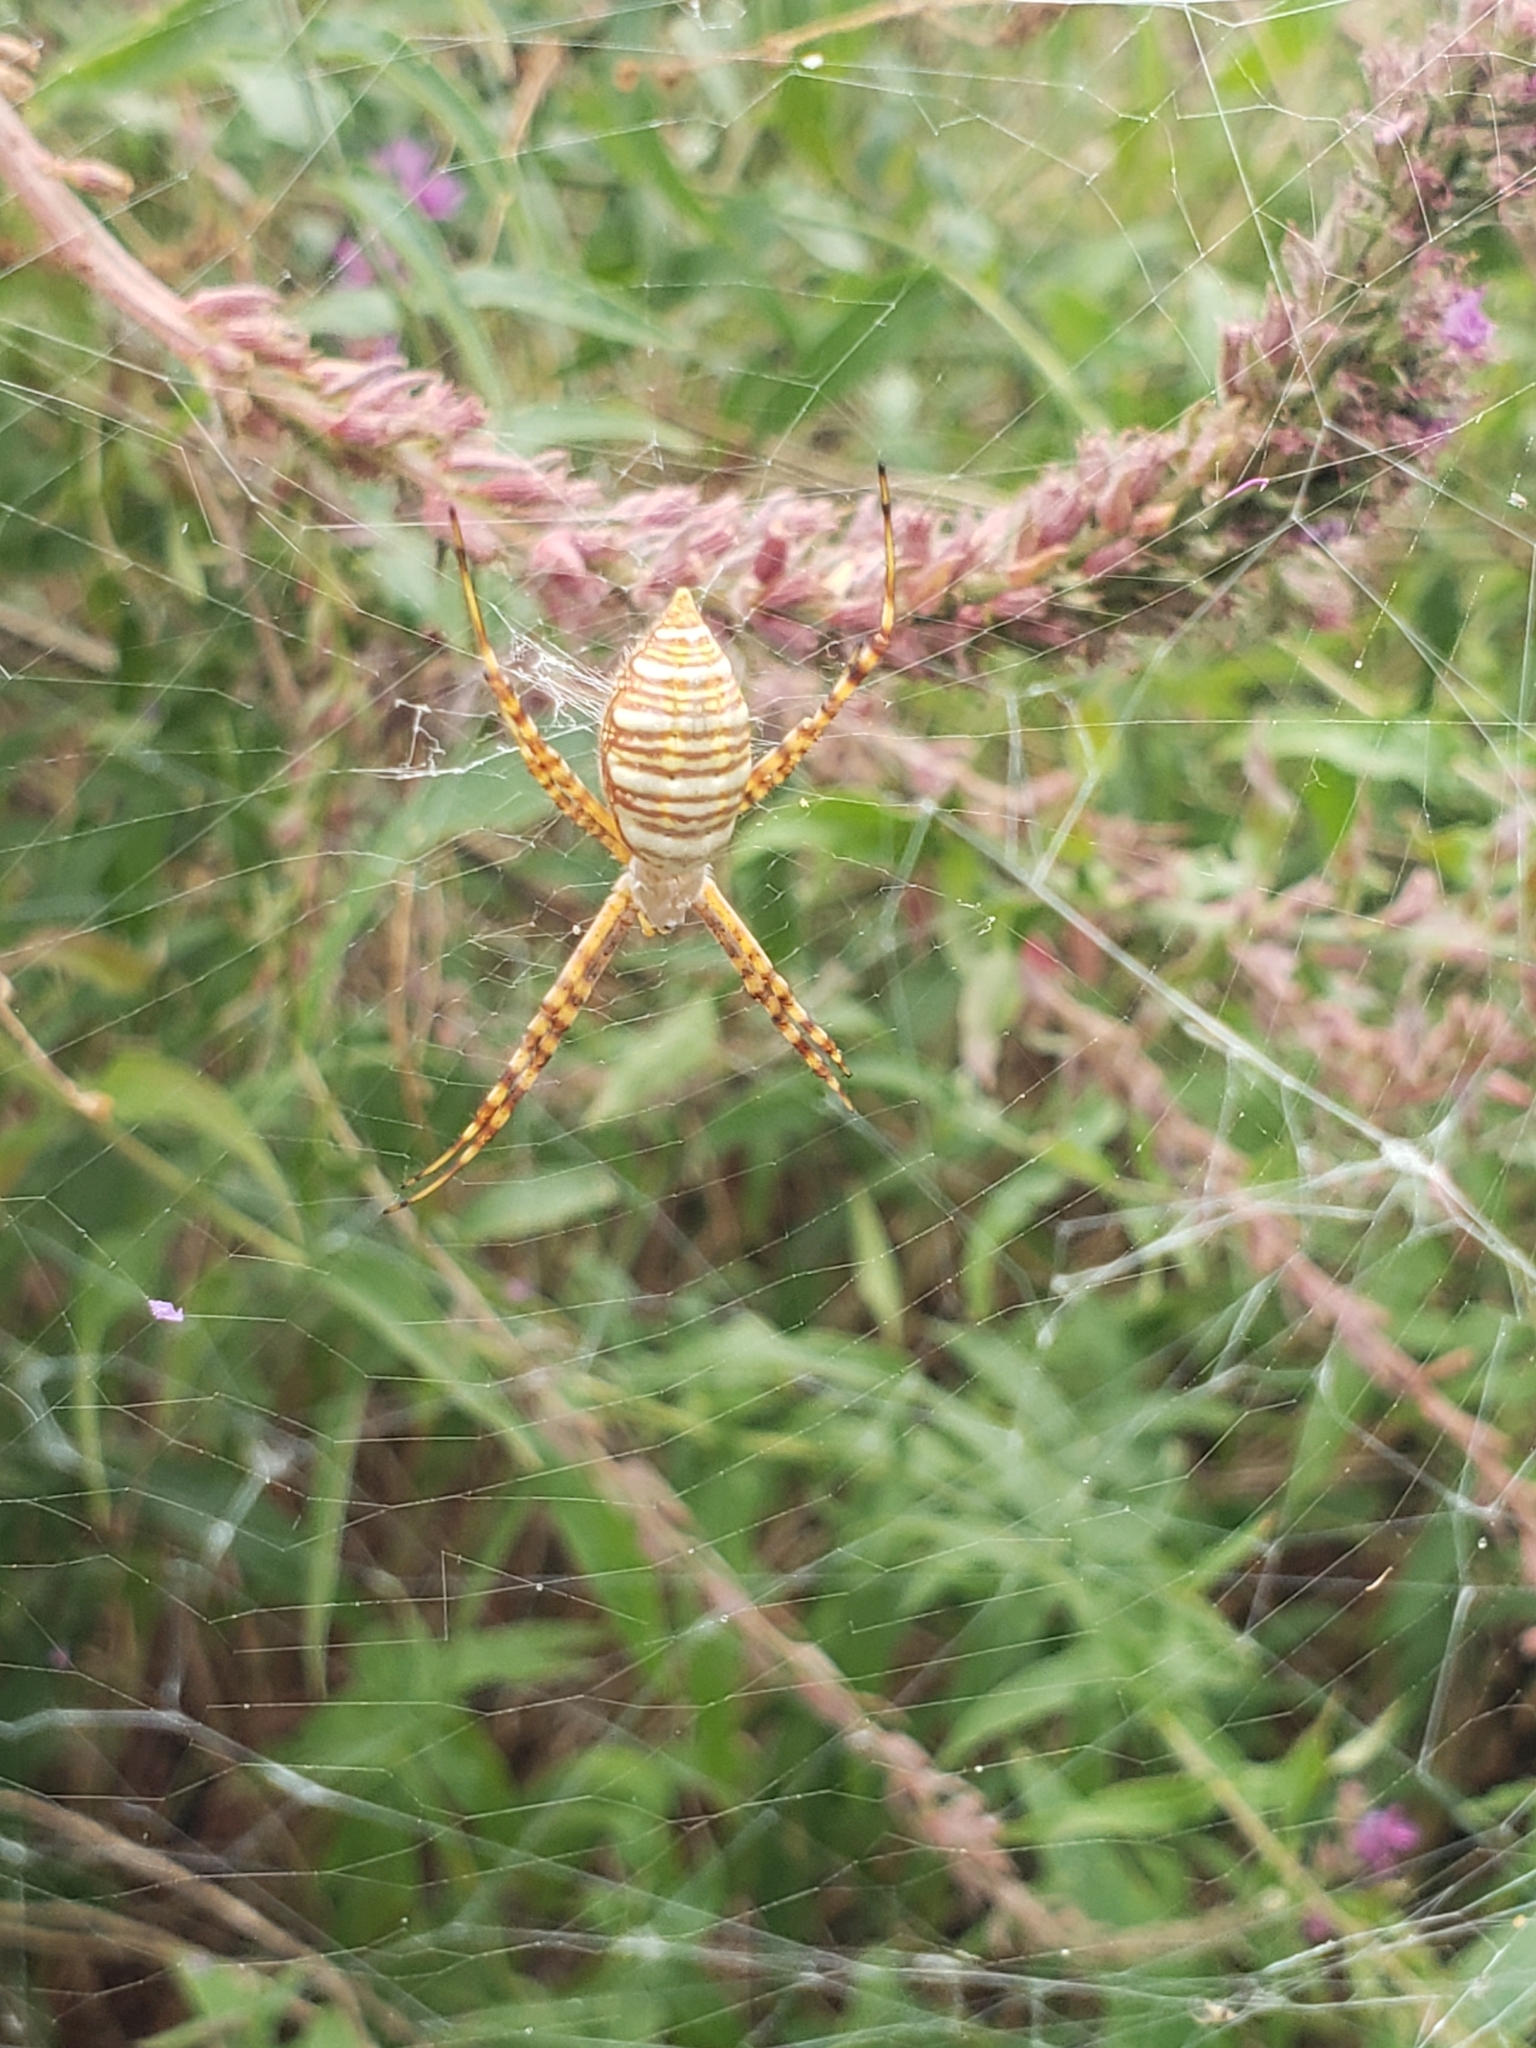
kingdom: Animalia
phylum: Arthropoda
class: Arachnida
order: Araneae
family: Araneidae
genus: Argiope
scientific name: Argiope trifasciata
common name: Banded garden spider
